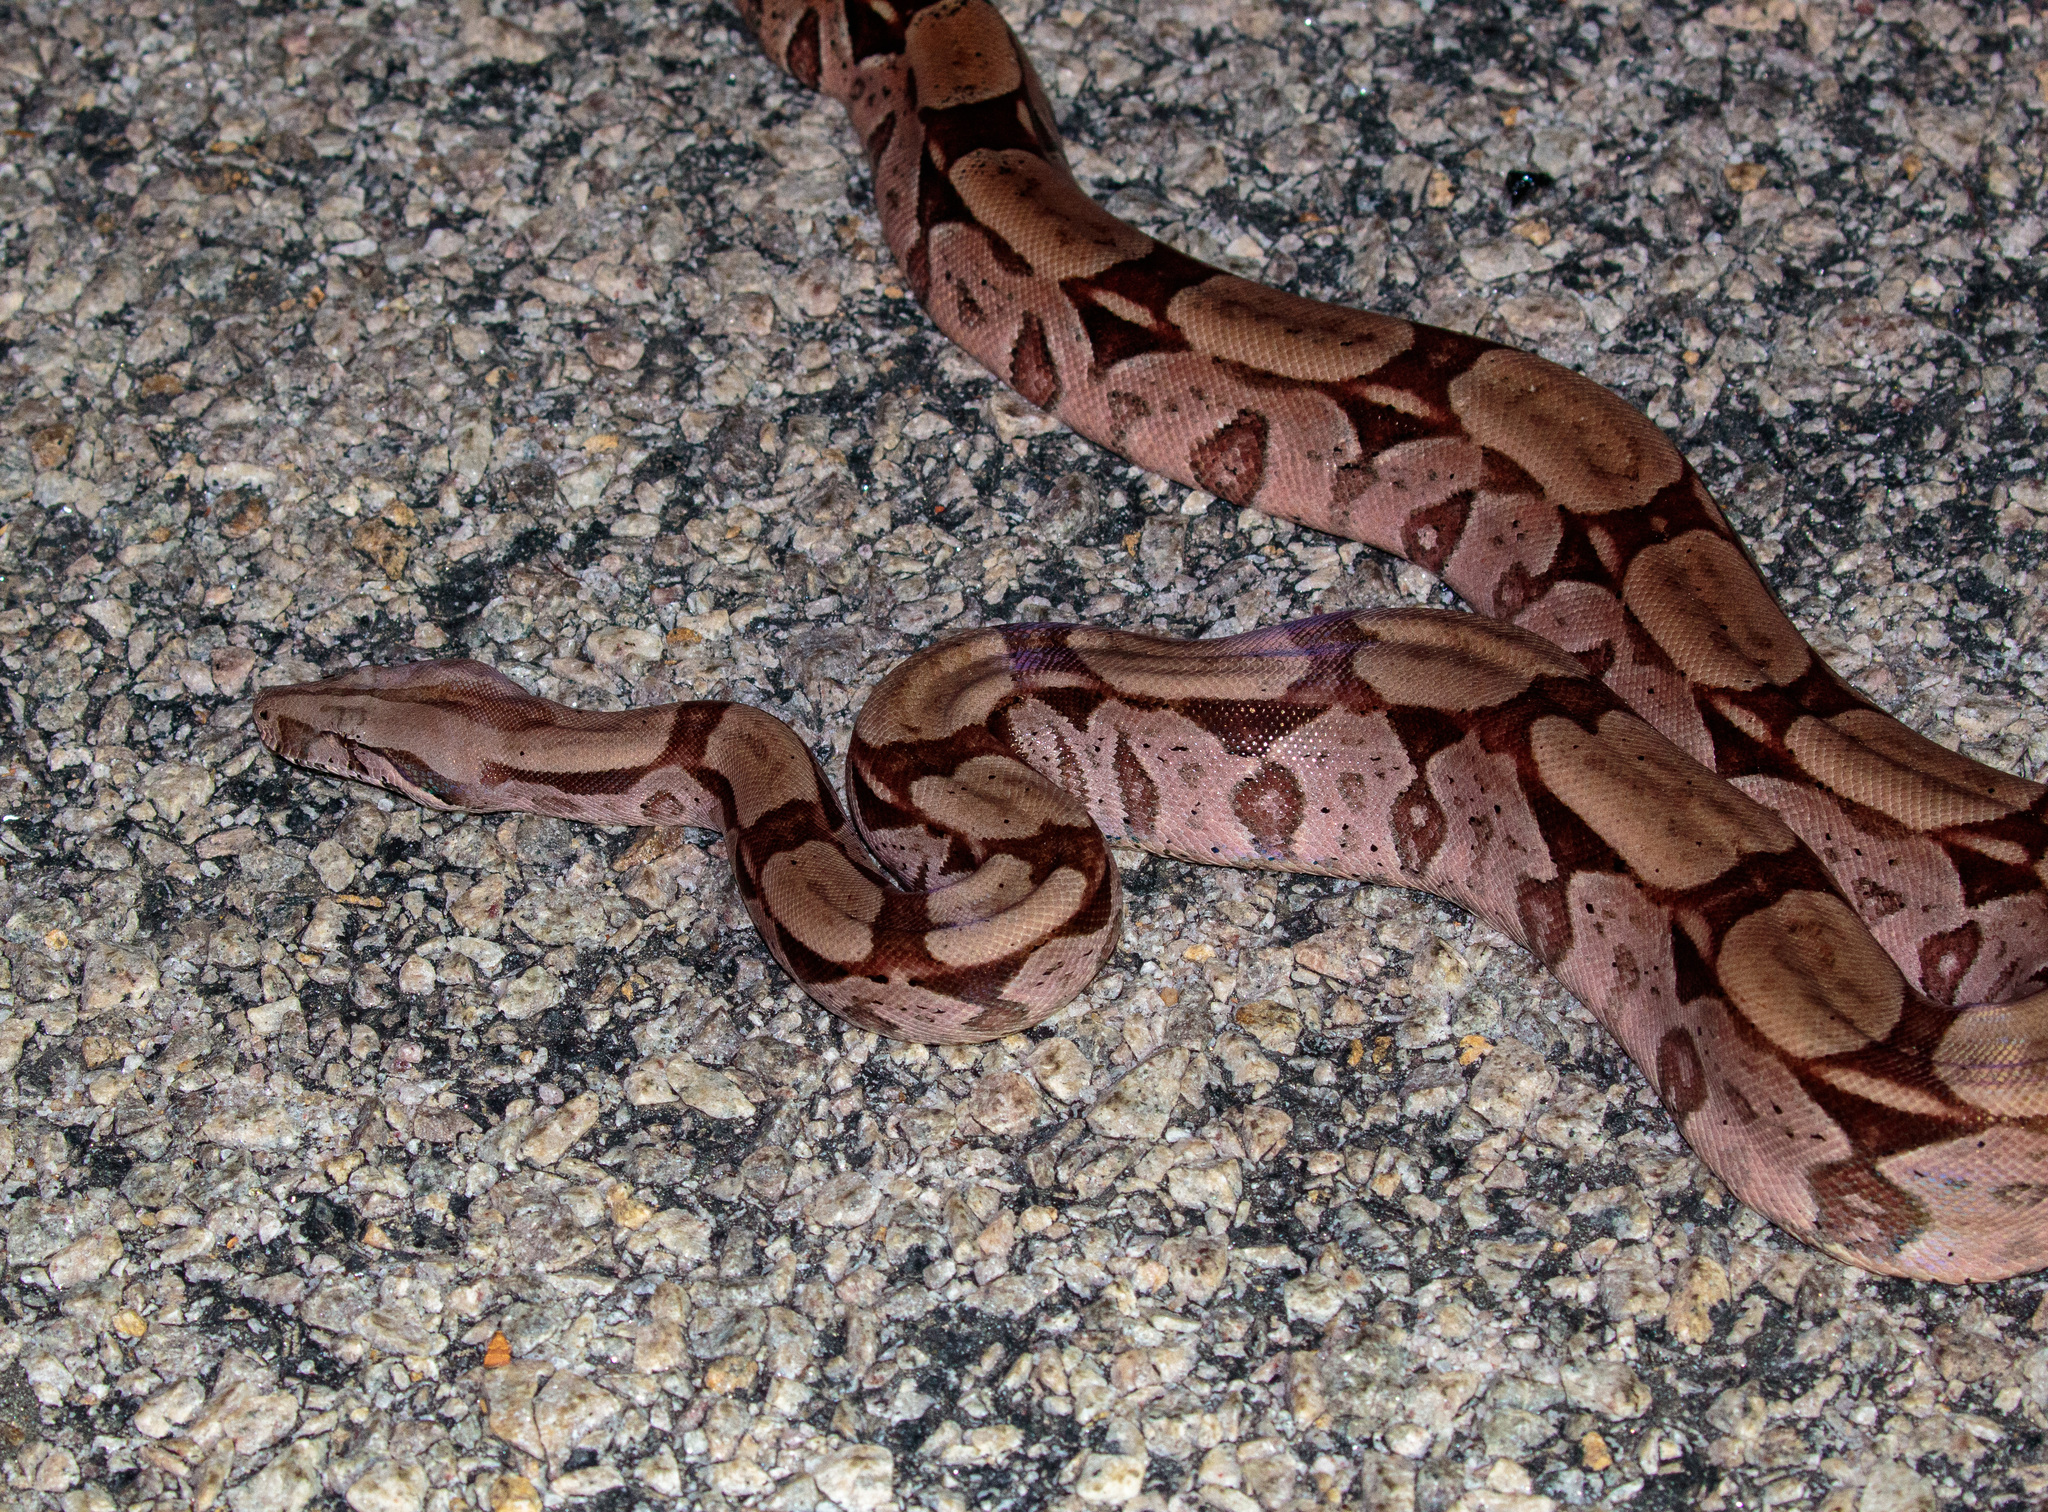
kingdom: Animalia
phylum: Chordata
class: Squamata
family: Boidae
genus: Boa
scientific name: Boa constrictor
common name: Boa constrictor
